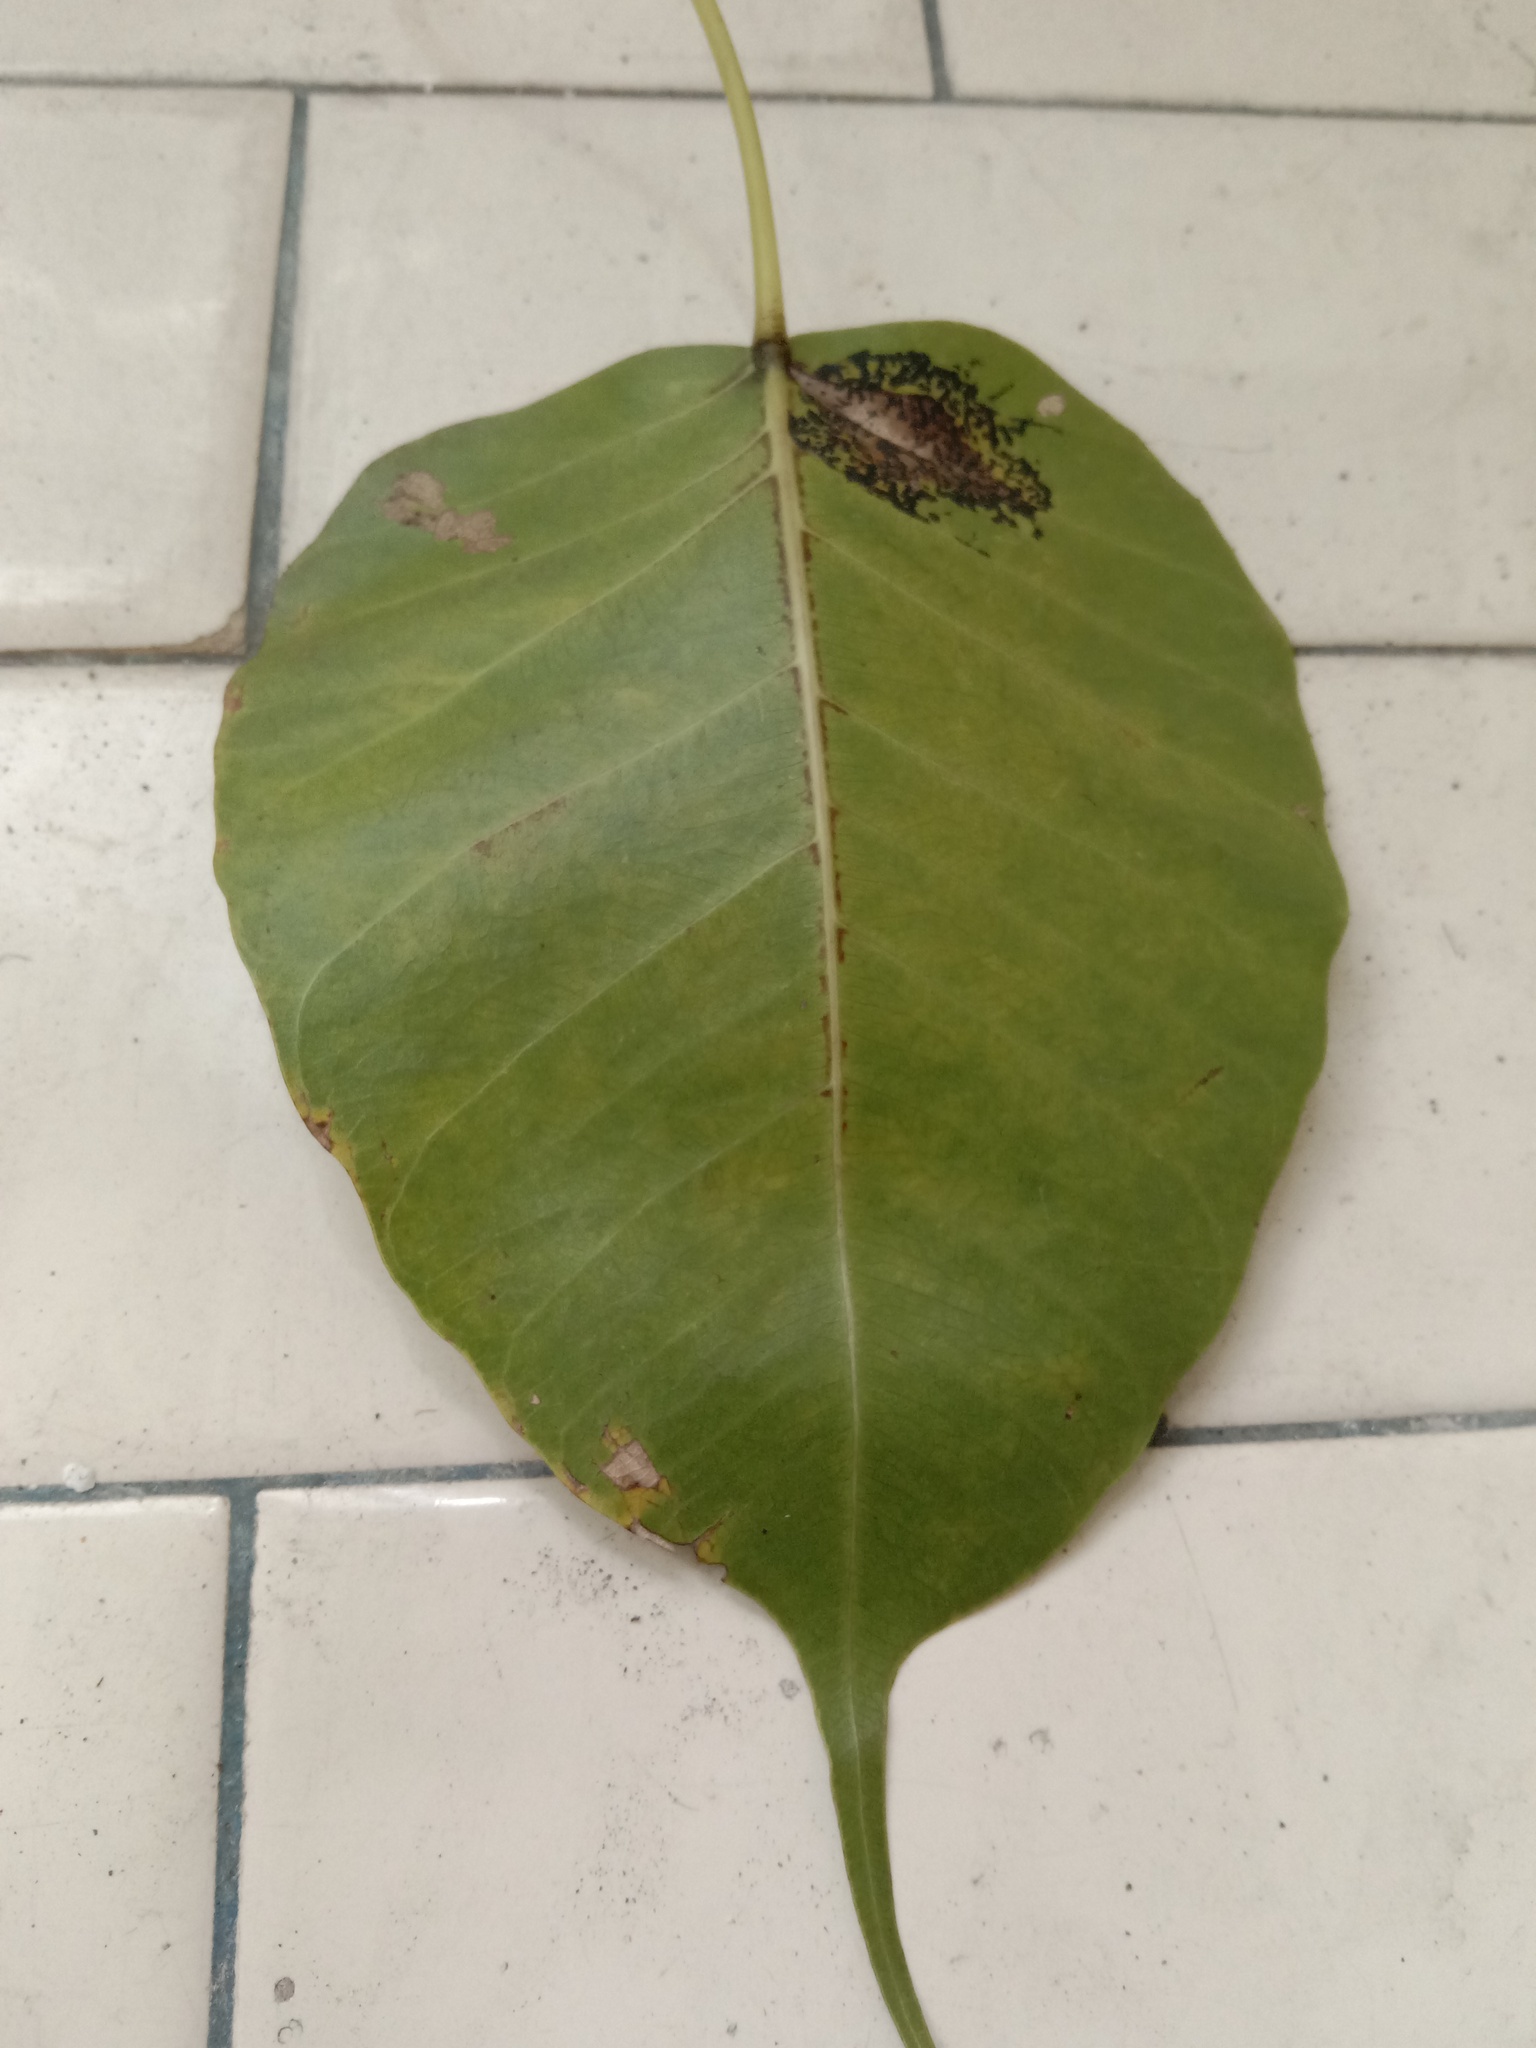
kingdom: Fungi
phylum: Ascomycota
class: Sordariomycetes
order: Phyllachorales
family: Phyllachoraceae
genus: Phyllachora
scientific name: Phyllachora repens
